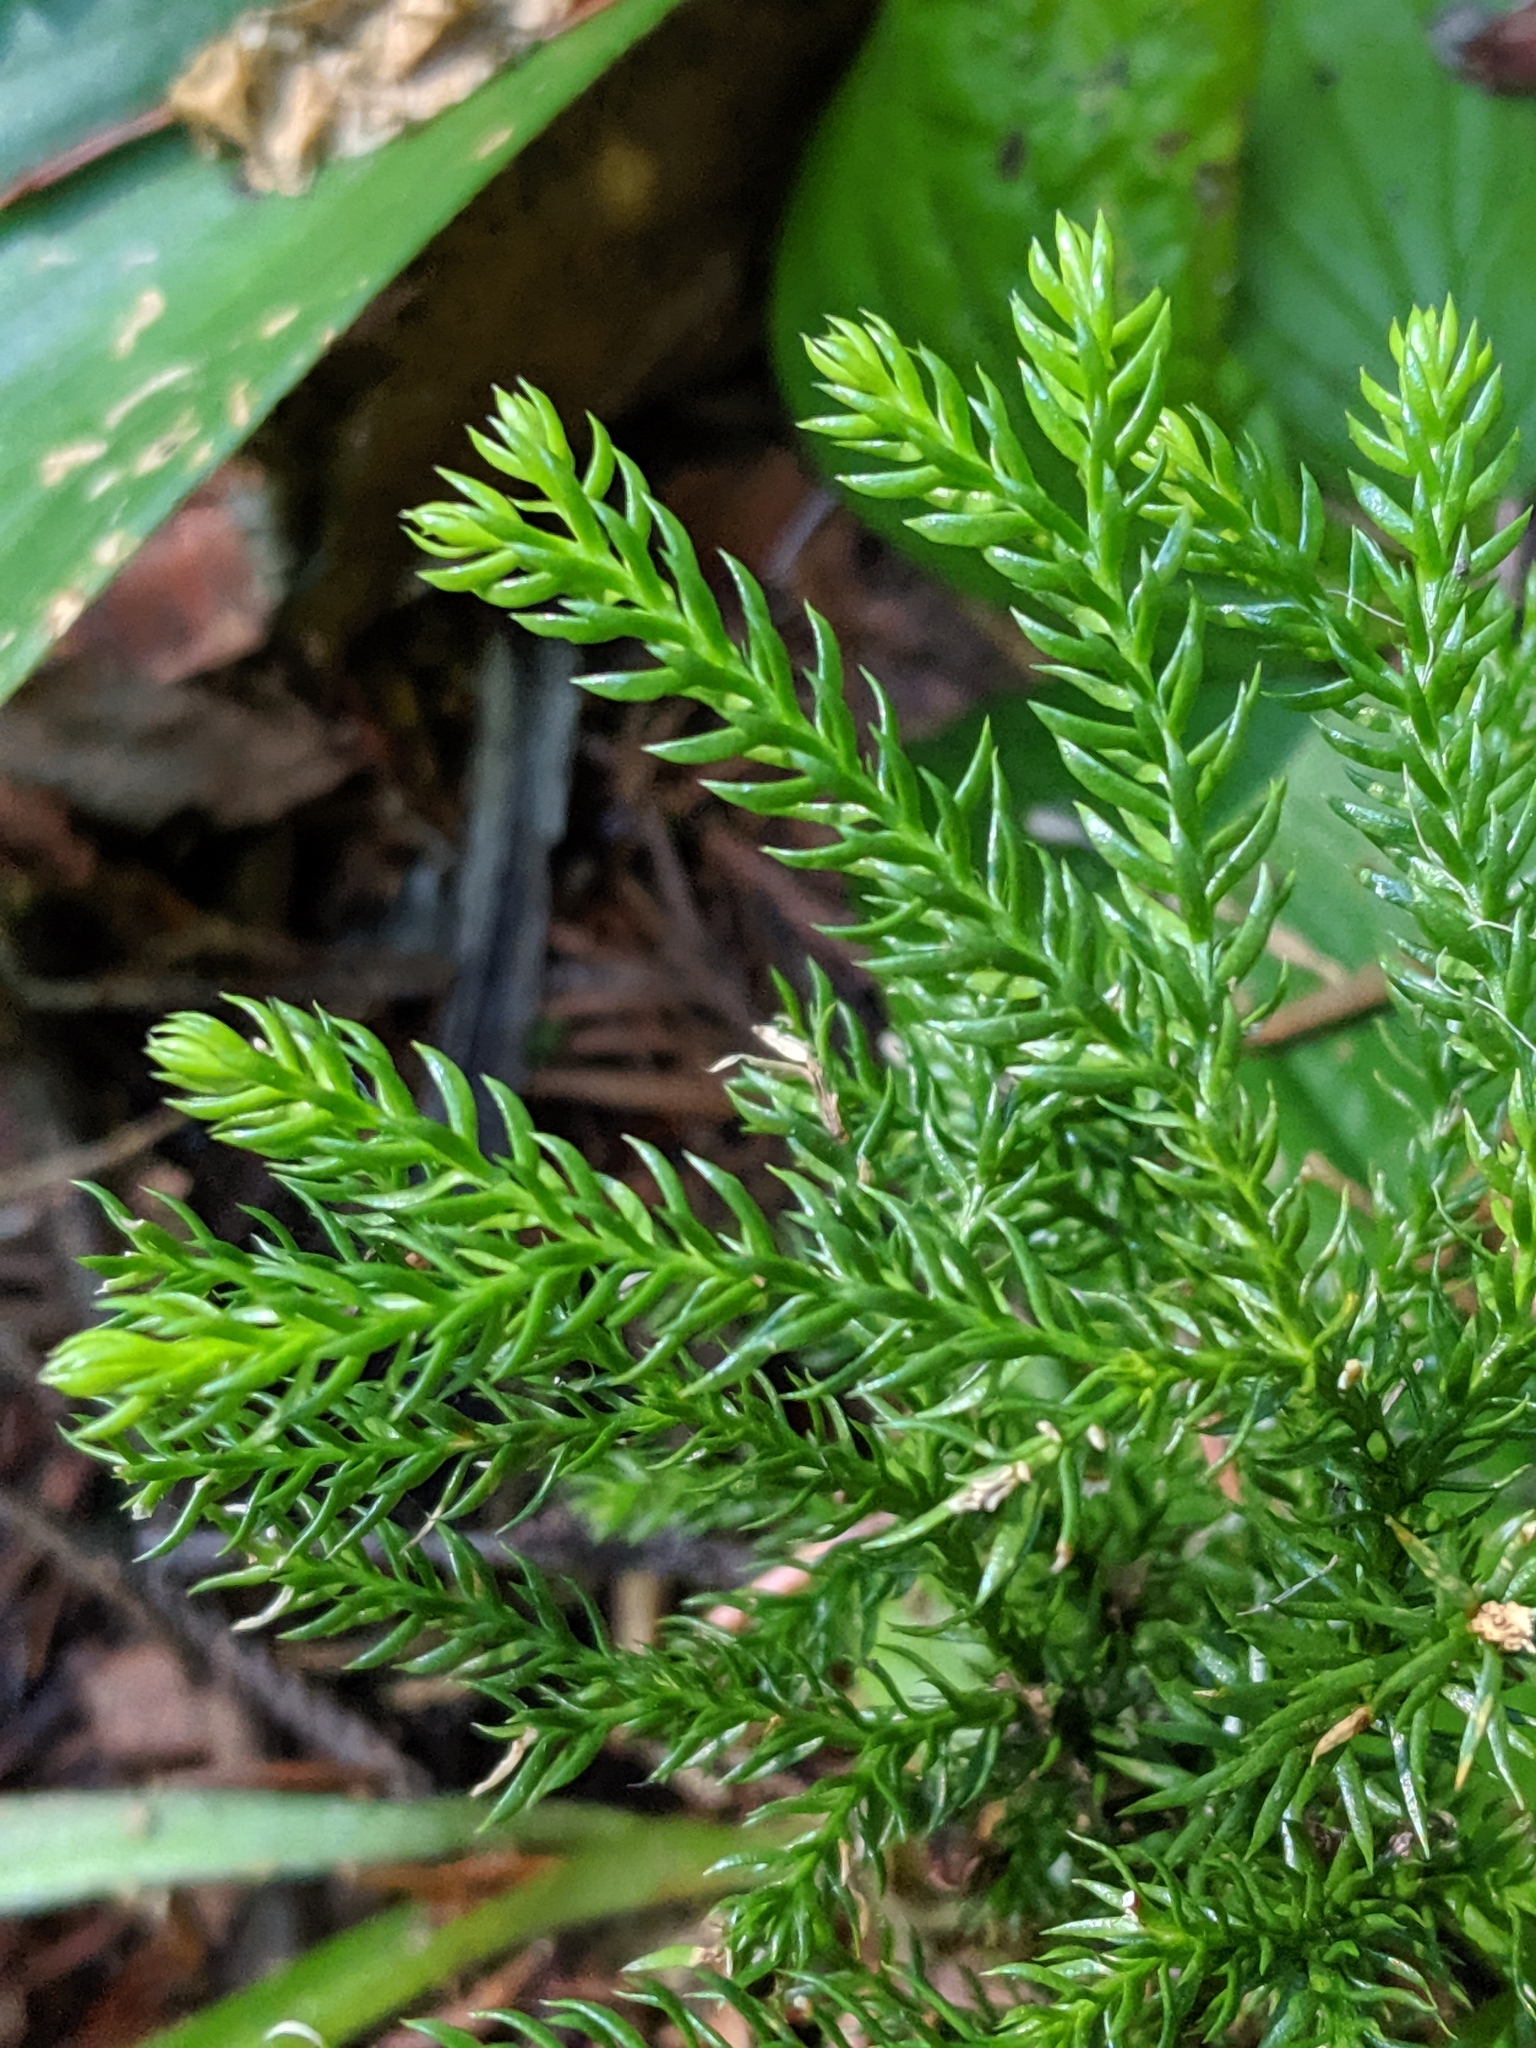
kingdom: Plantae
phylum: Tracheophyta
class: Lycopodiopsida
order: Lycopodiales
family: Lycopodiaceae
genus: Dendrolycopodium
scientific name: Dendrolycopodium dendroideum
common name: Northern tree-clubmoss
